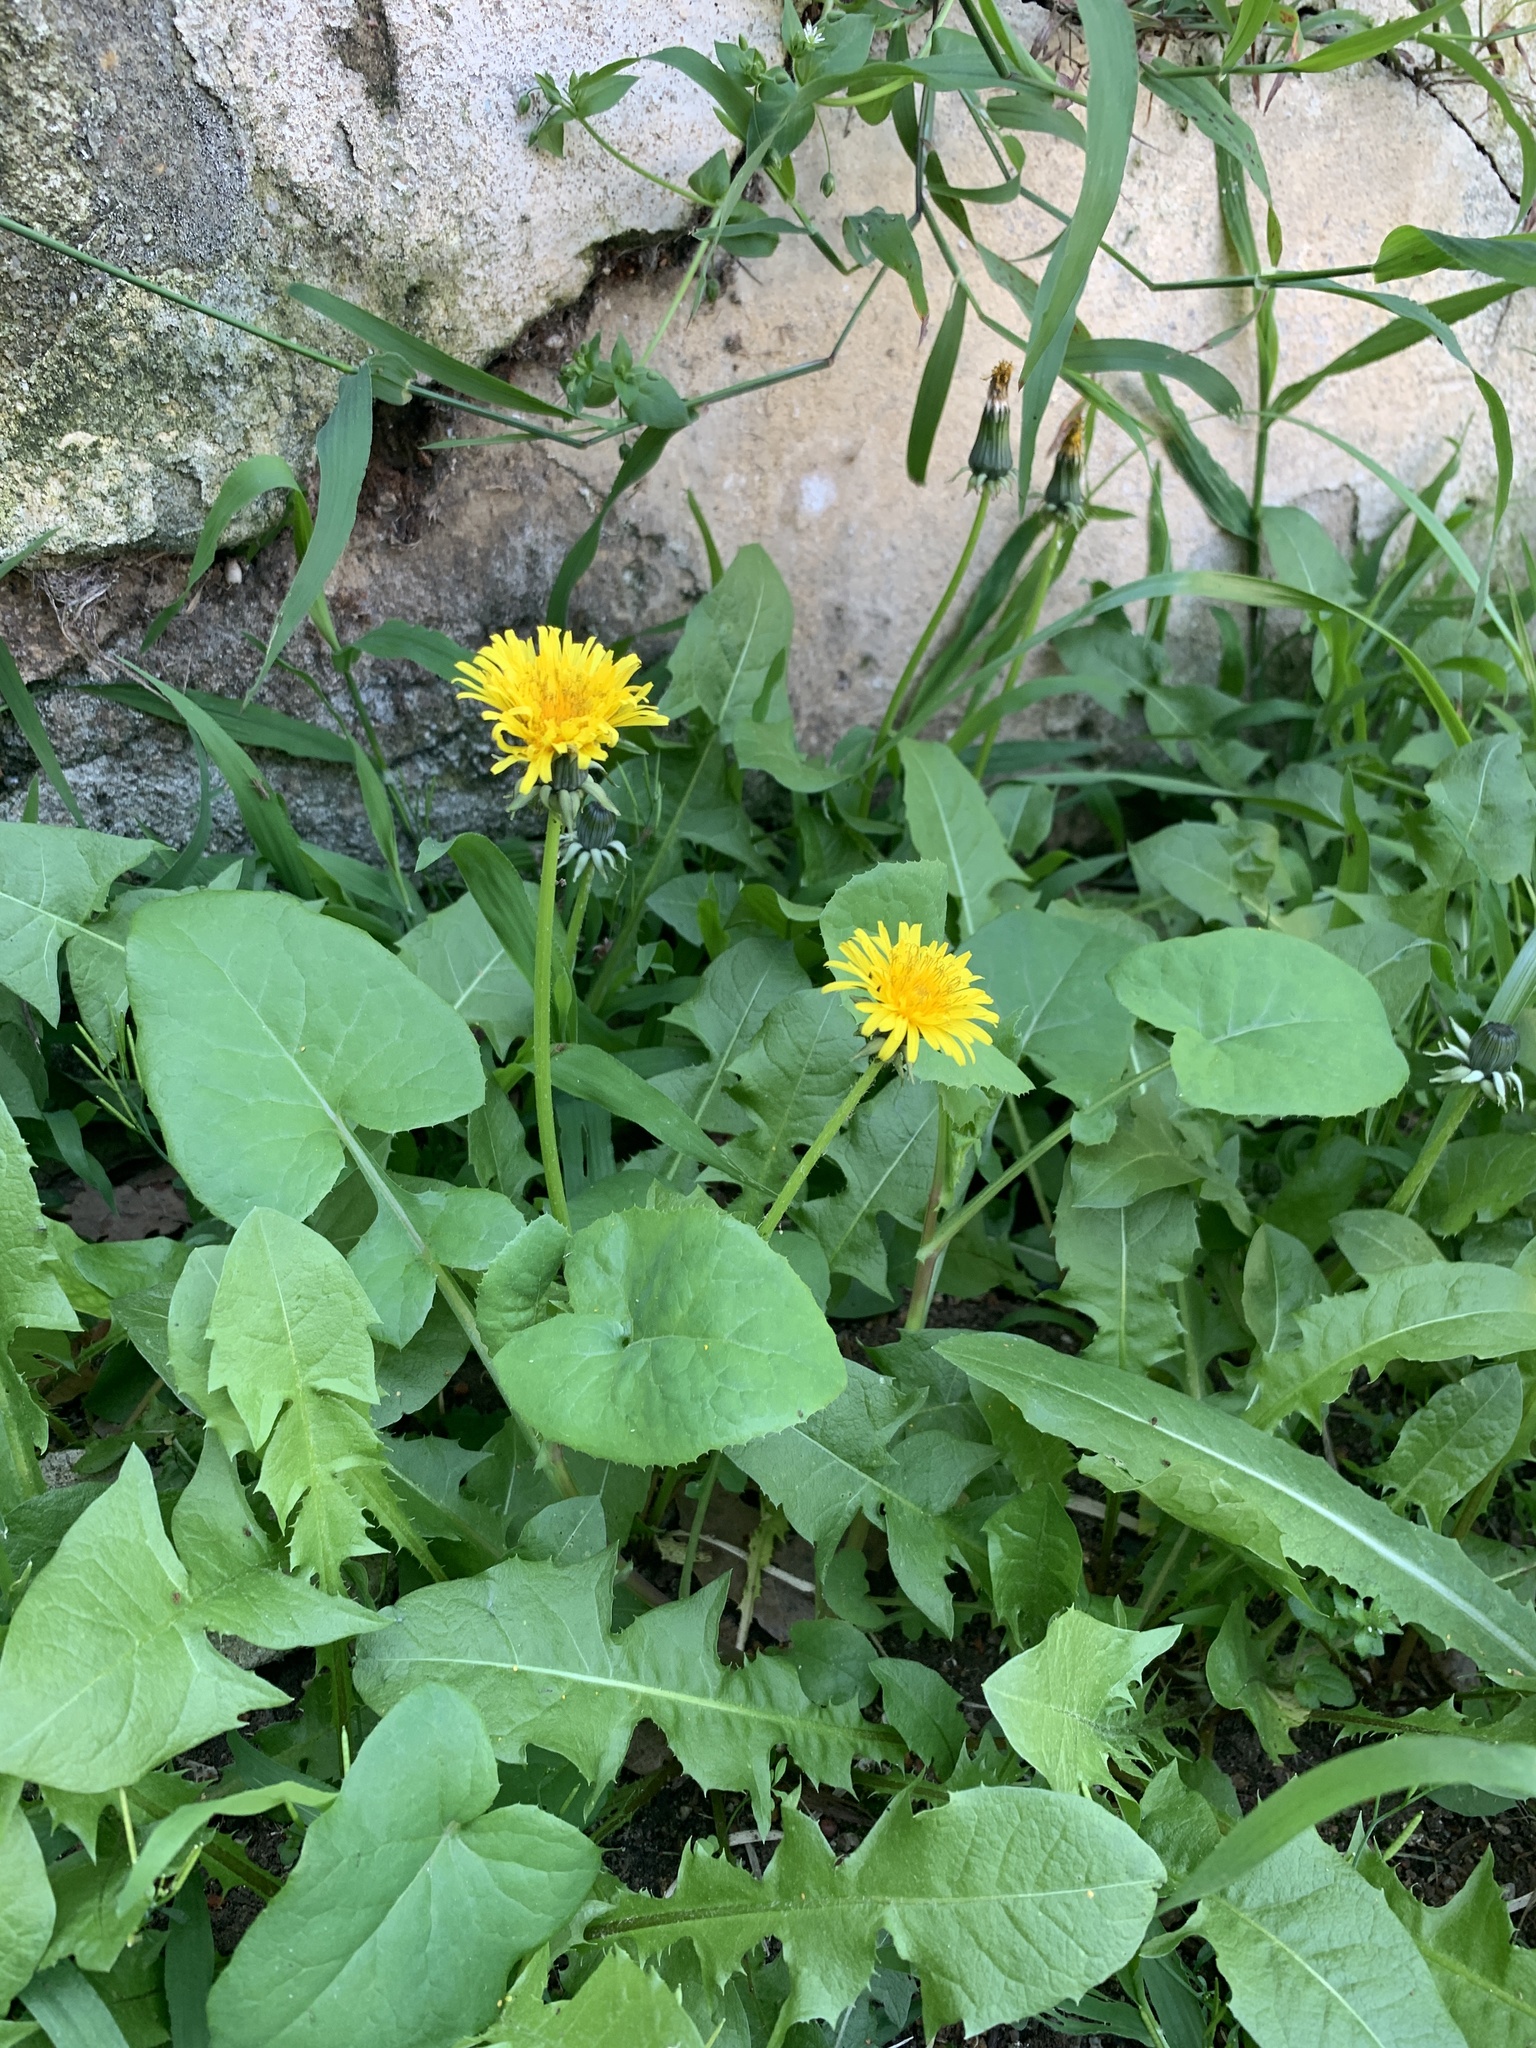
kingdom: Plantae
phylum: Tracheophyta
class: Magnoliopsida
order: Asterales
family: Asteraceae
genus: Taraxacum
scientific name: Taraxacum officinale
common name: Common dandelion
